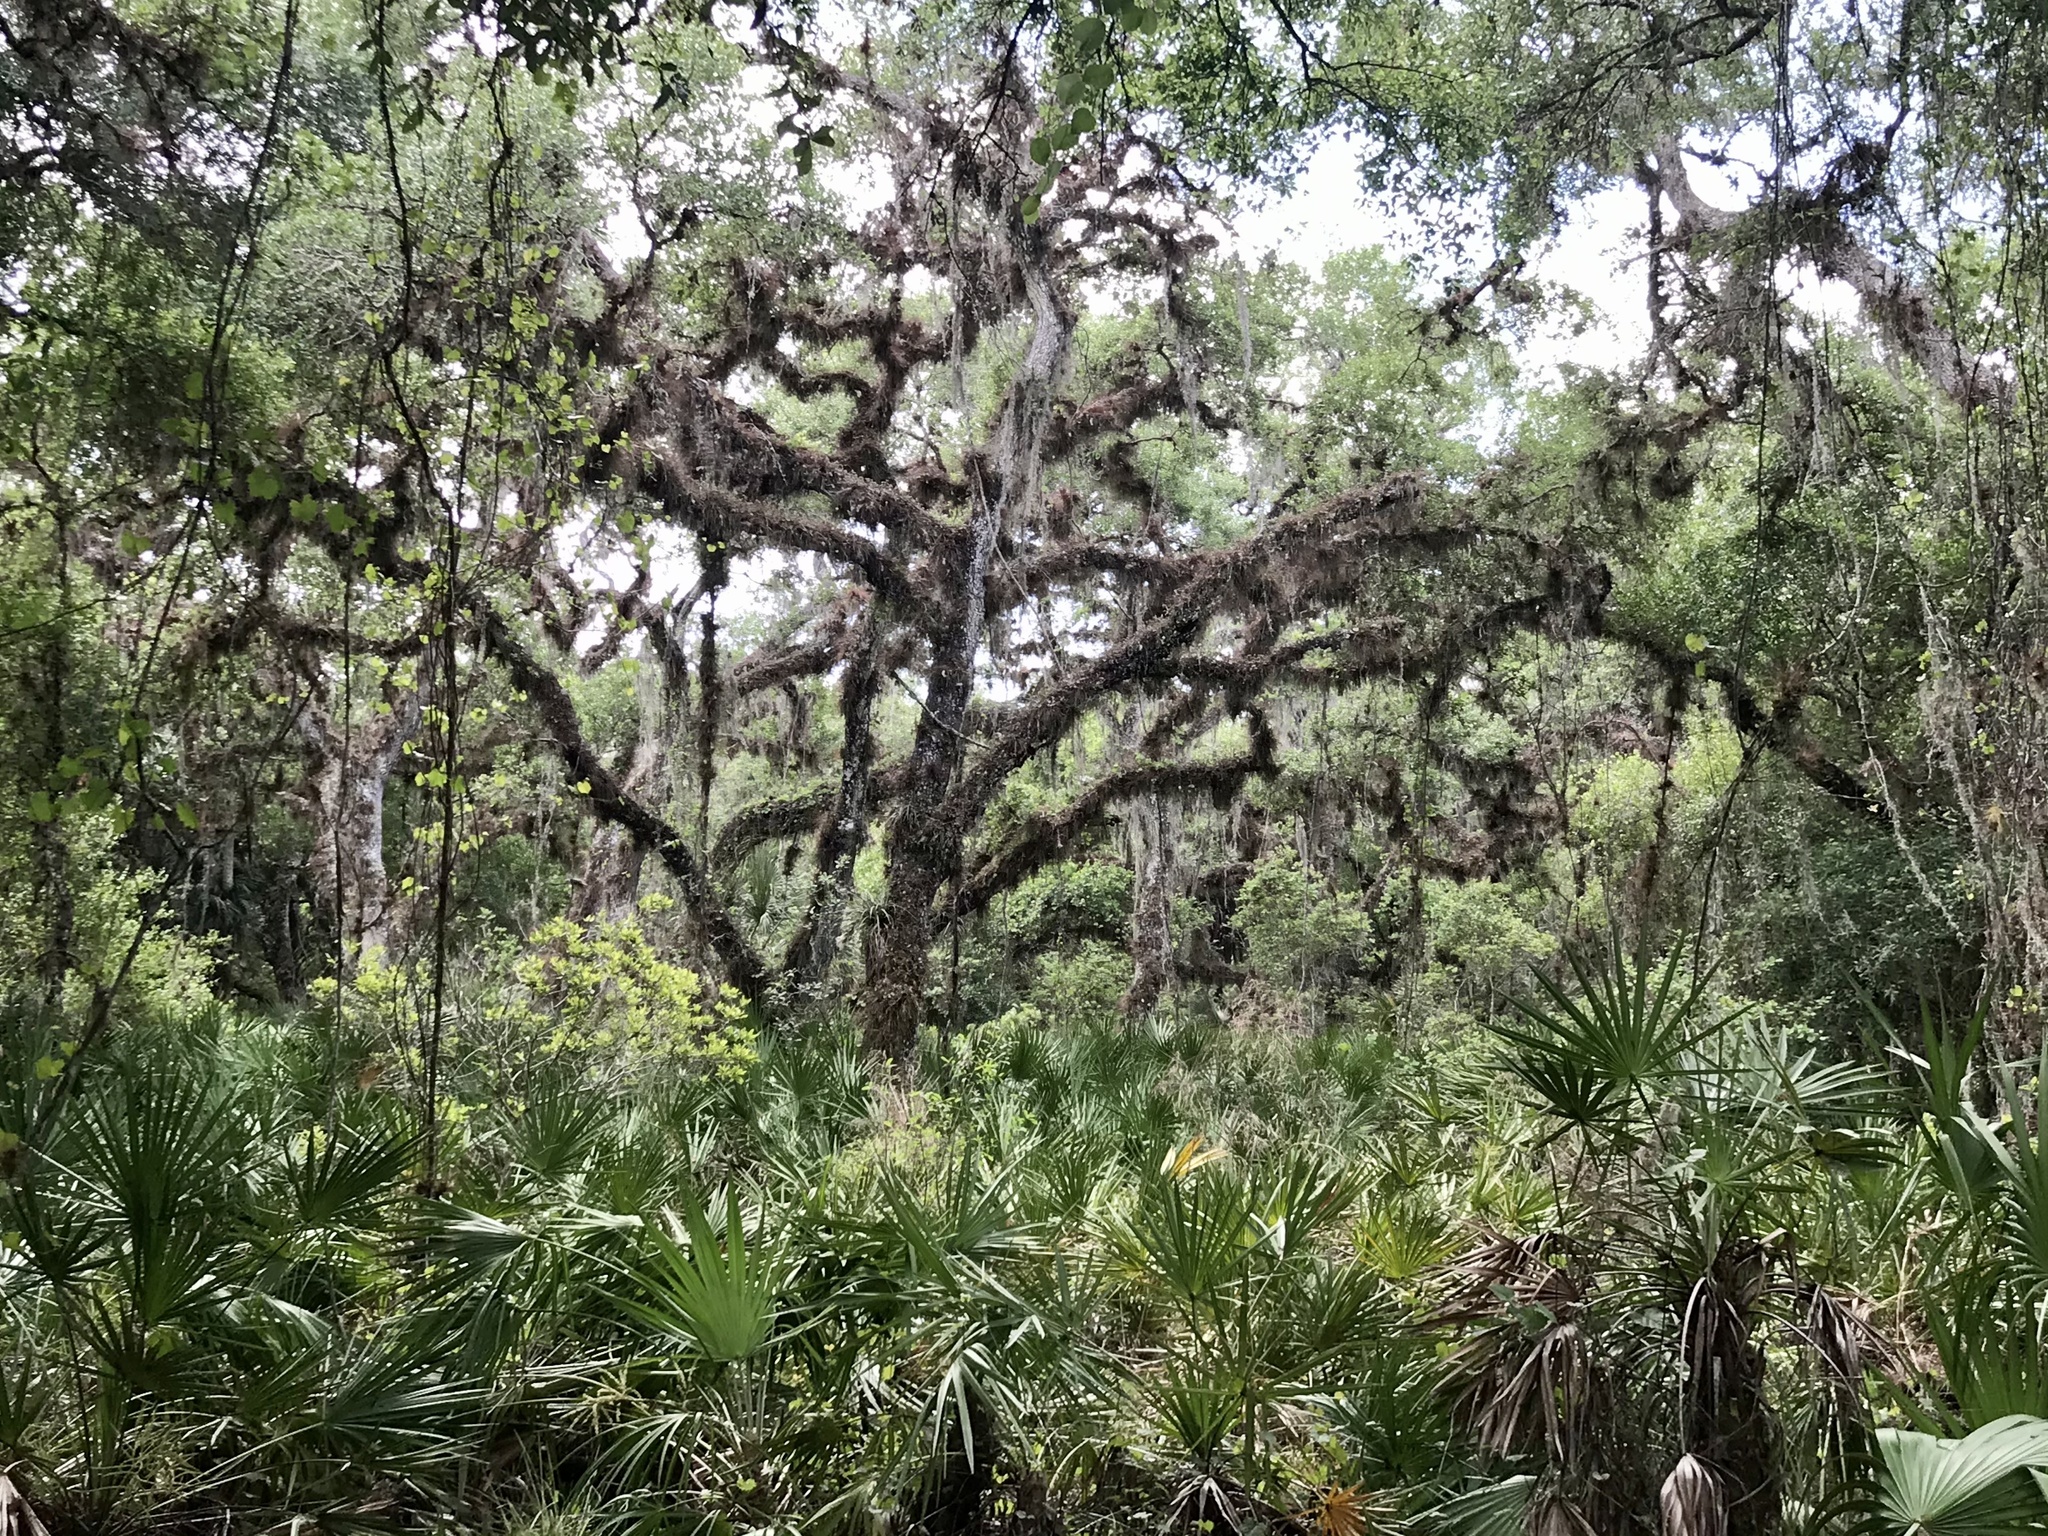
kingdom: Plantae
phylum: Tracheophyta
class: Magnoliopsida
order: Fagales
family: Fagaceae
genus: Quercus
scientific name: Quercus virginiana
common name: Southern live oak
